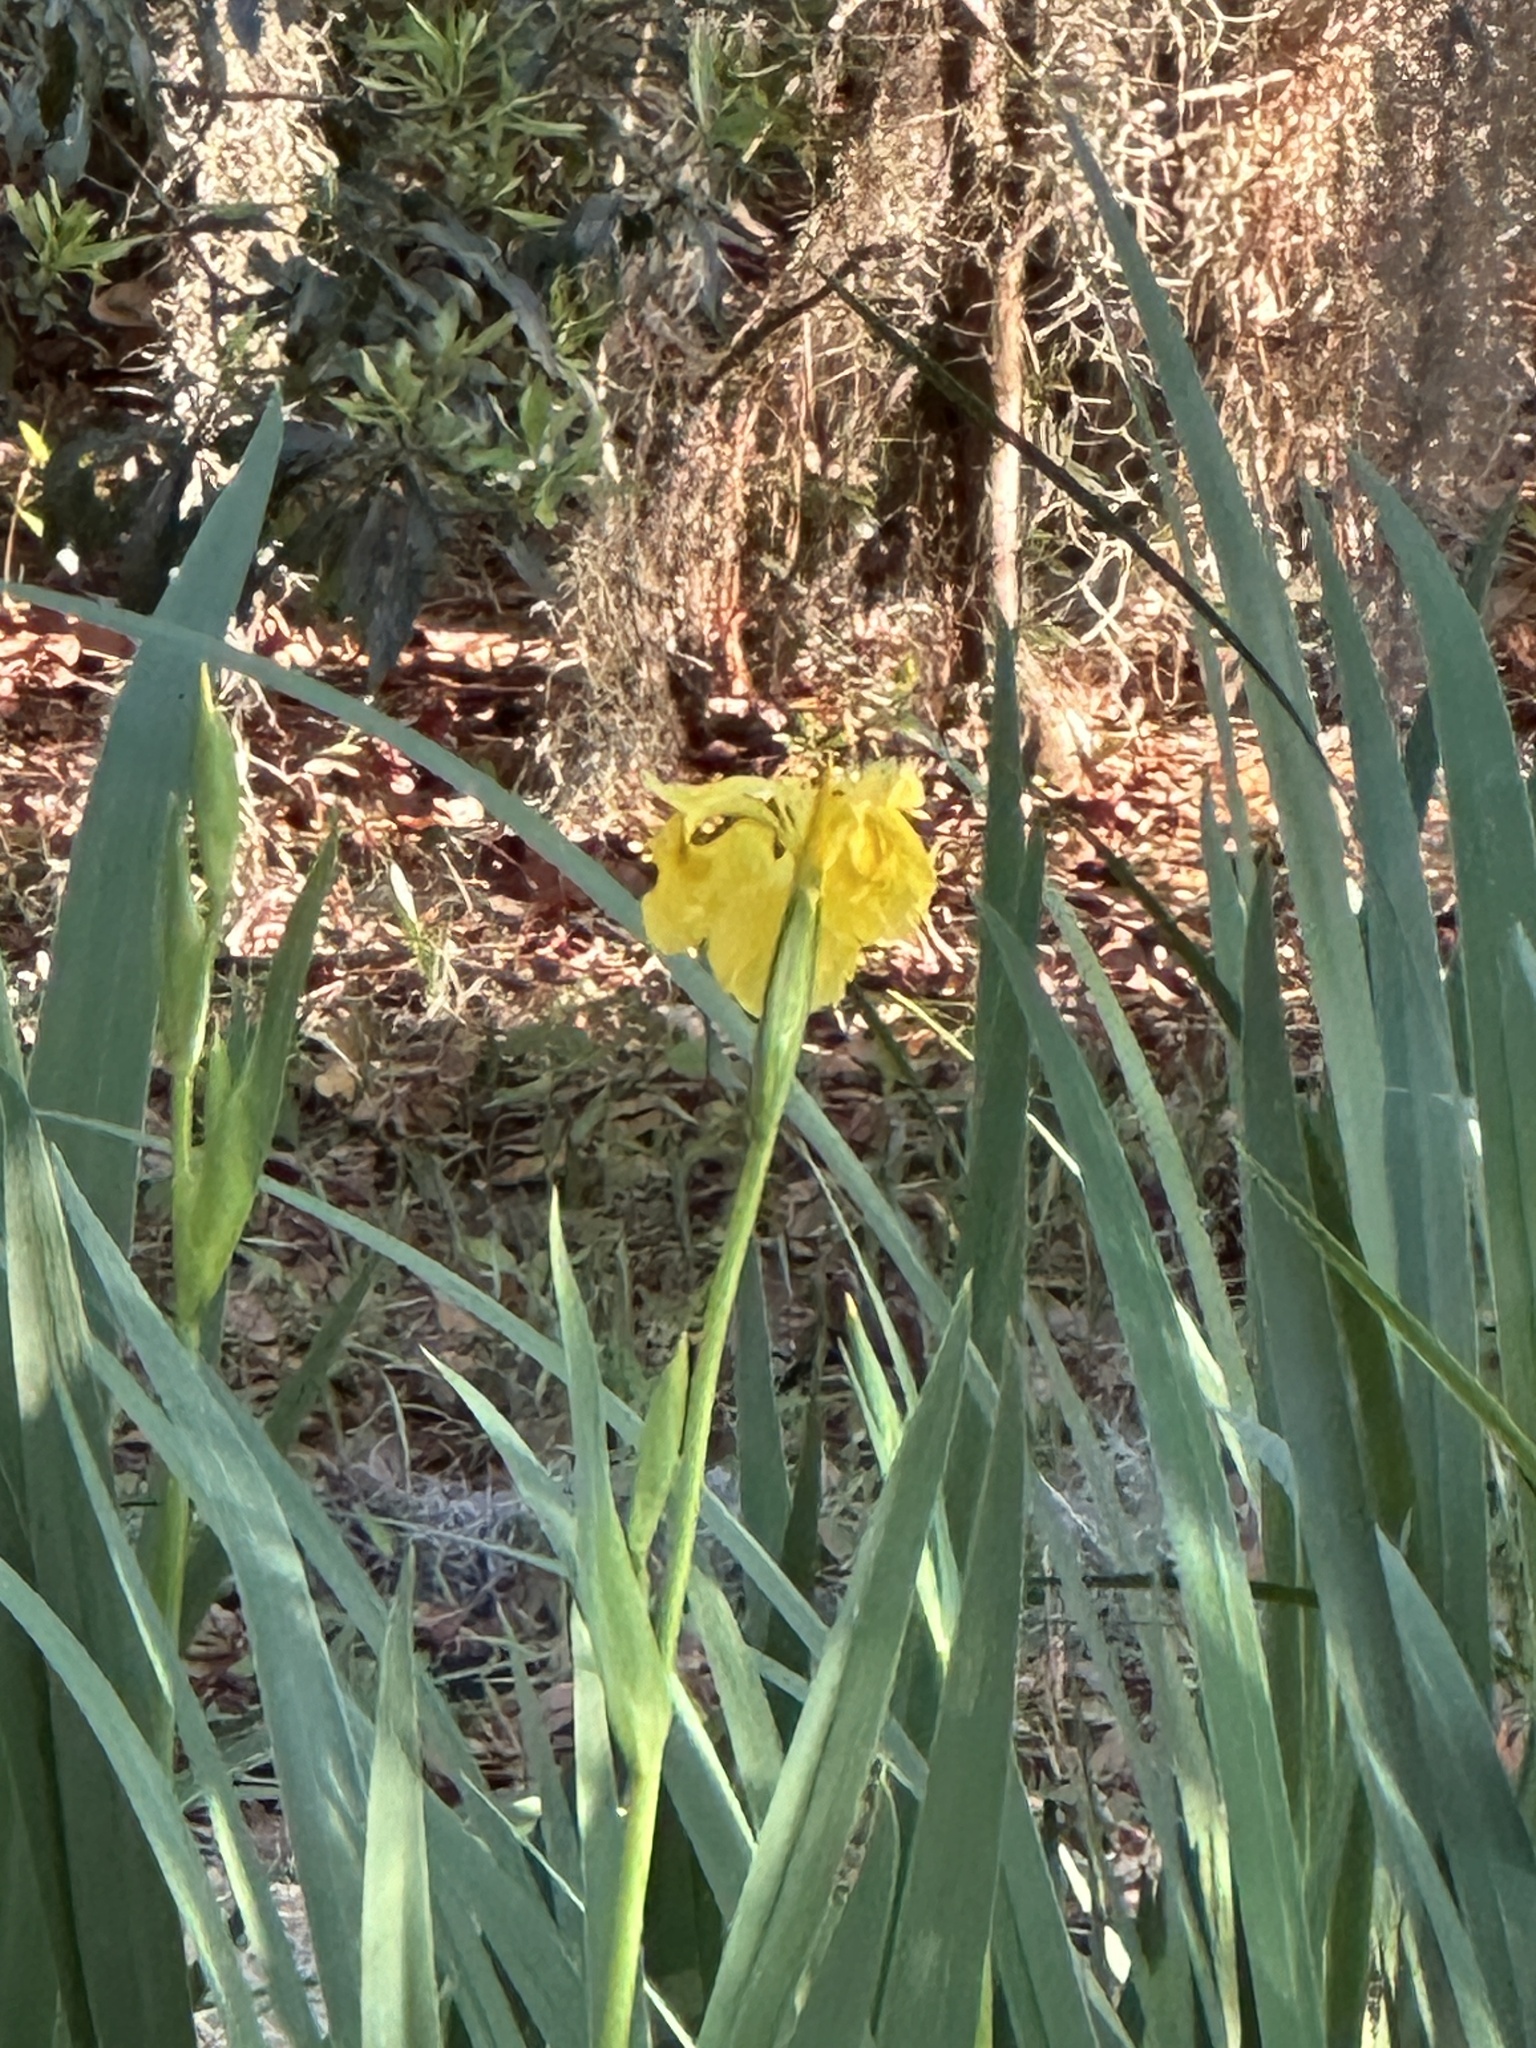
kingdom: Plantae
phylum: Tracheophyta
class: Liliopsida
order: Asparagales
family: Iridaceae
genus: Iris
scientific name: Iris pseudacorus
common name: Yellow flag
